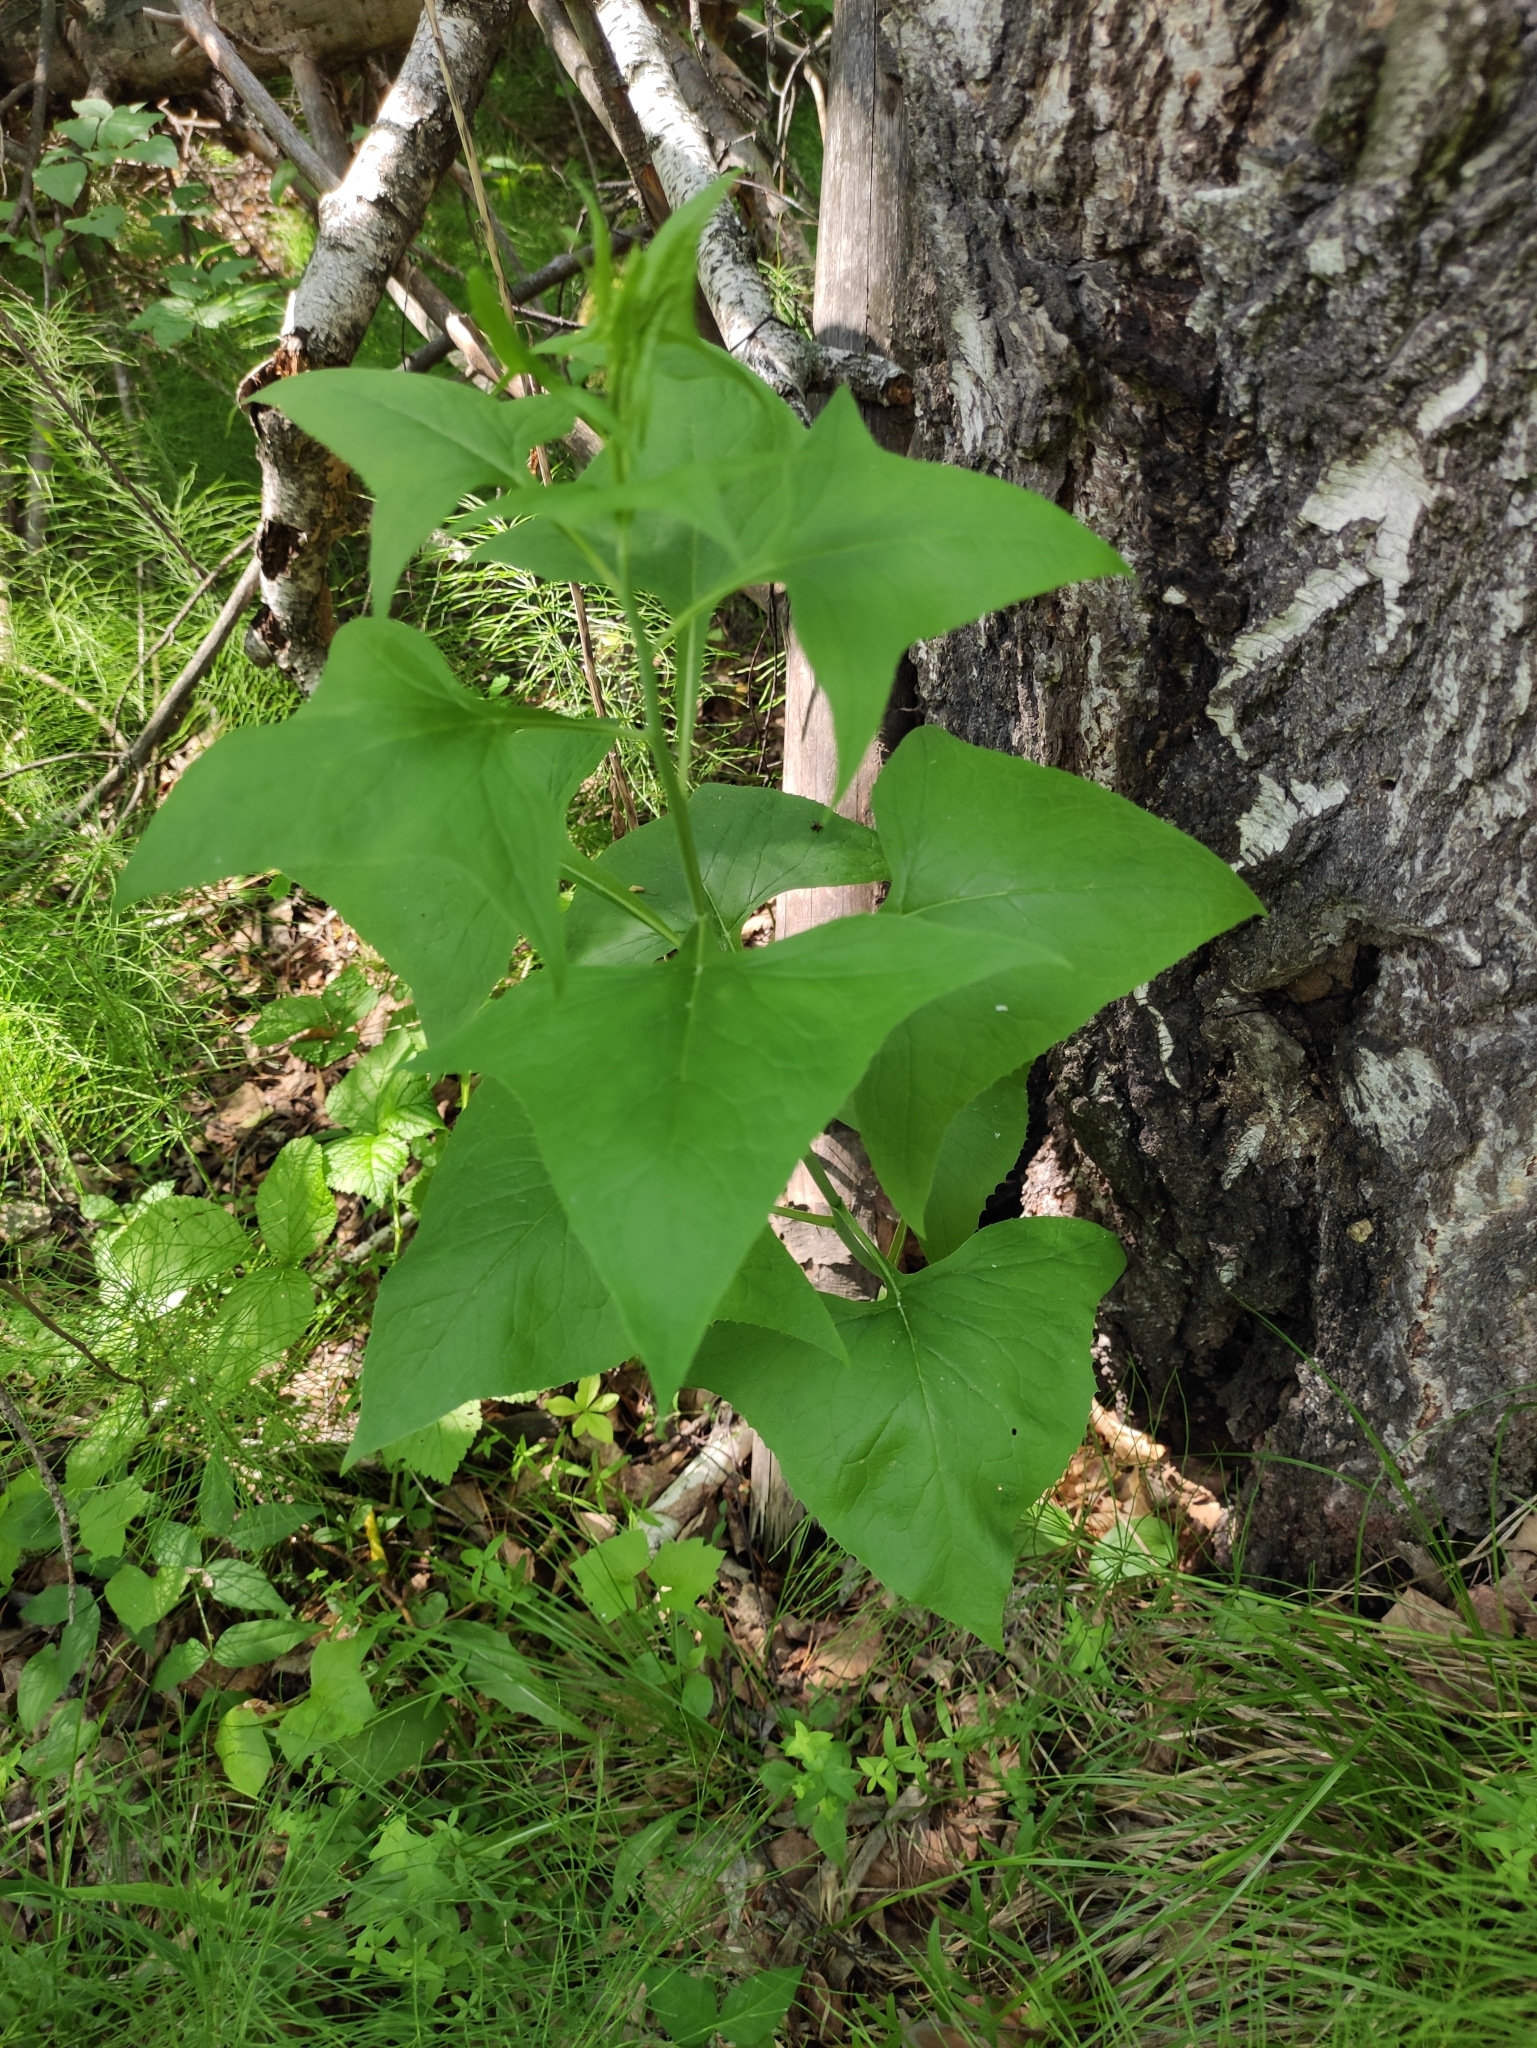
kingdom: Plantae
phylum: Tracheophyta
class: Magnoliopsida
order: Asterales
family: Asteraceae
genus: Parasenecio
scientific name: Parasenecio hastatus
